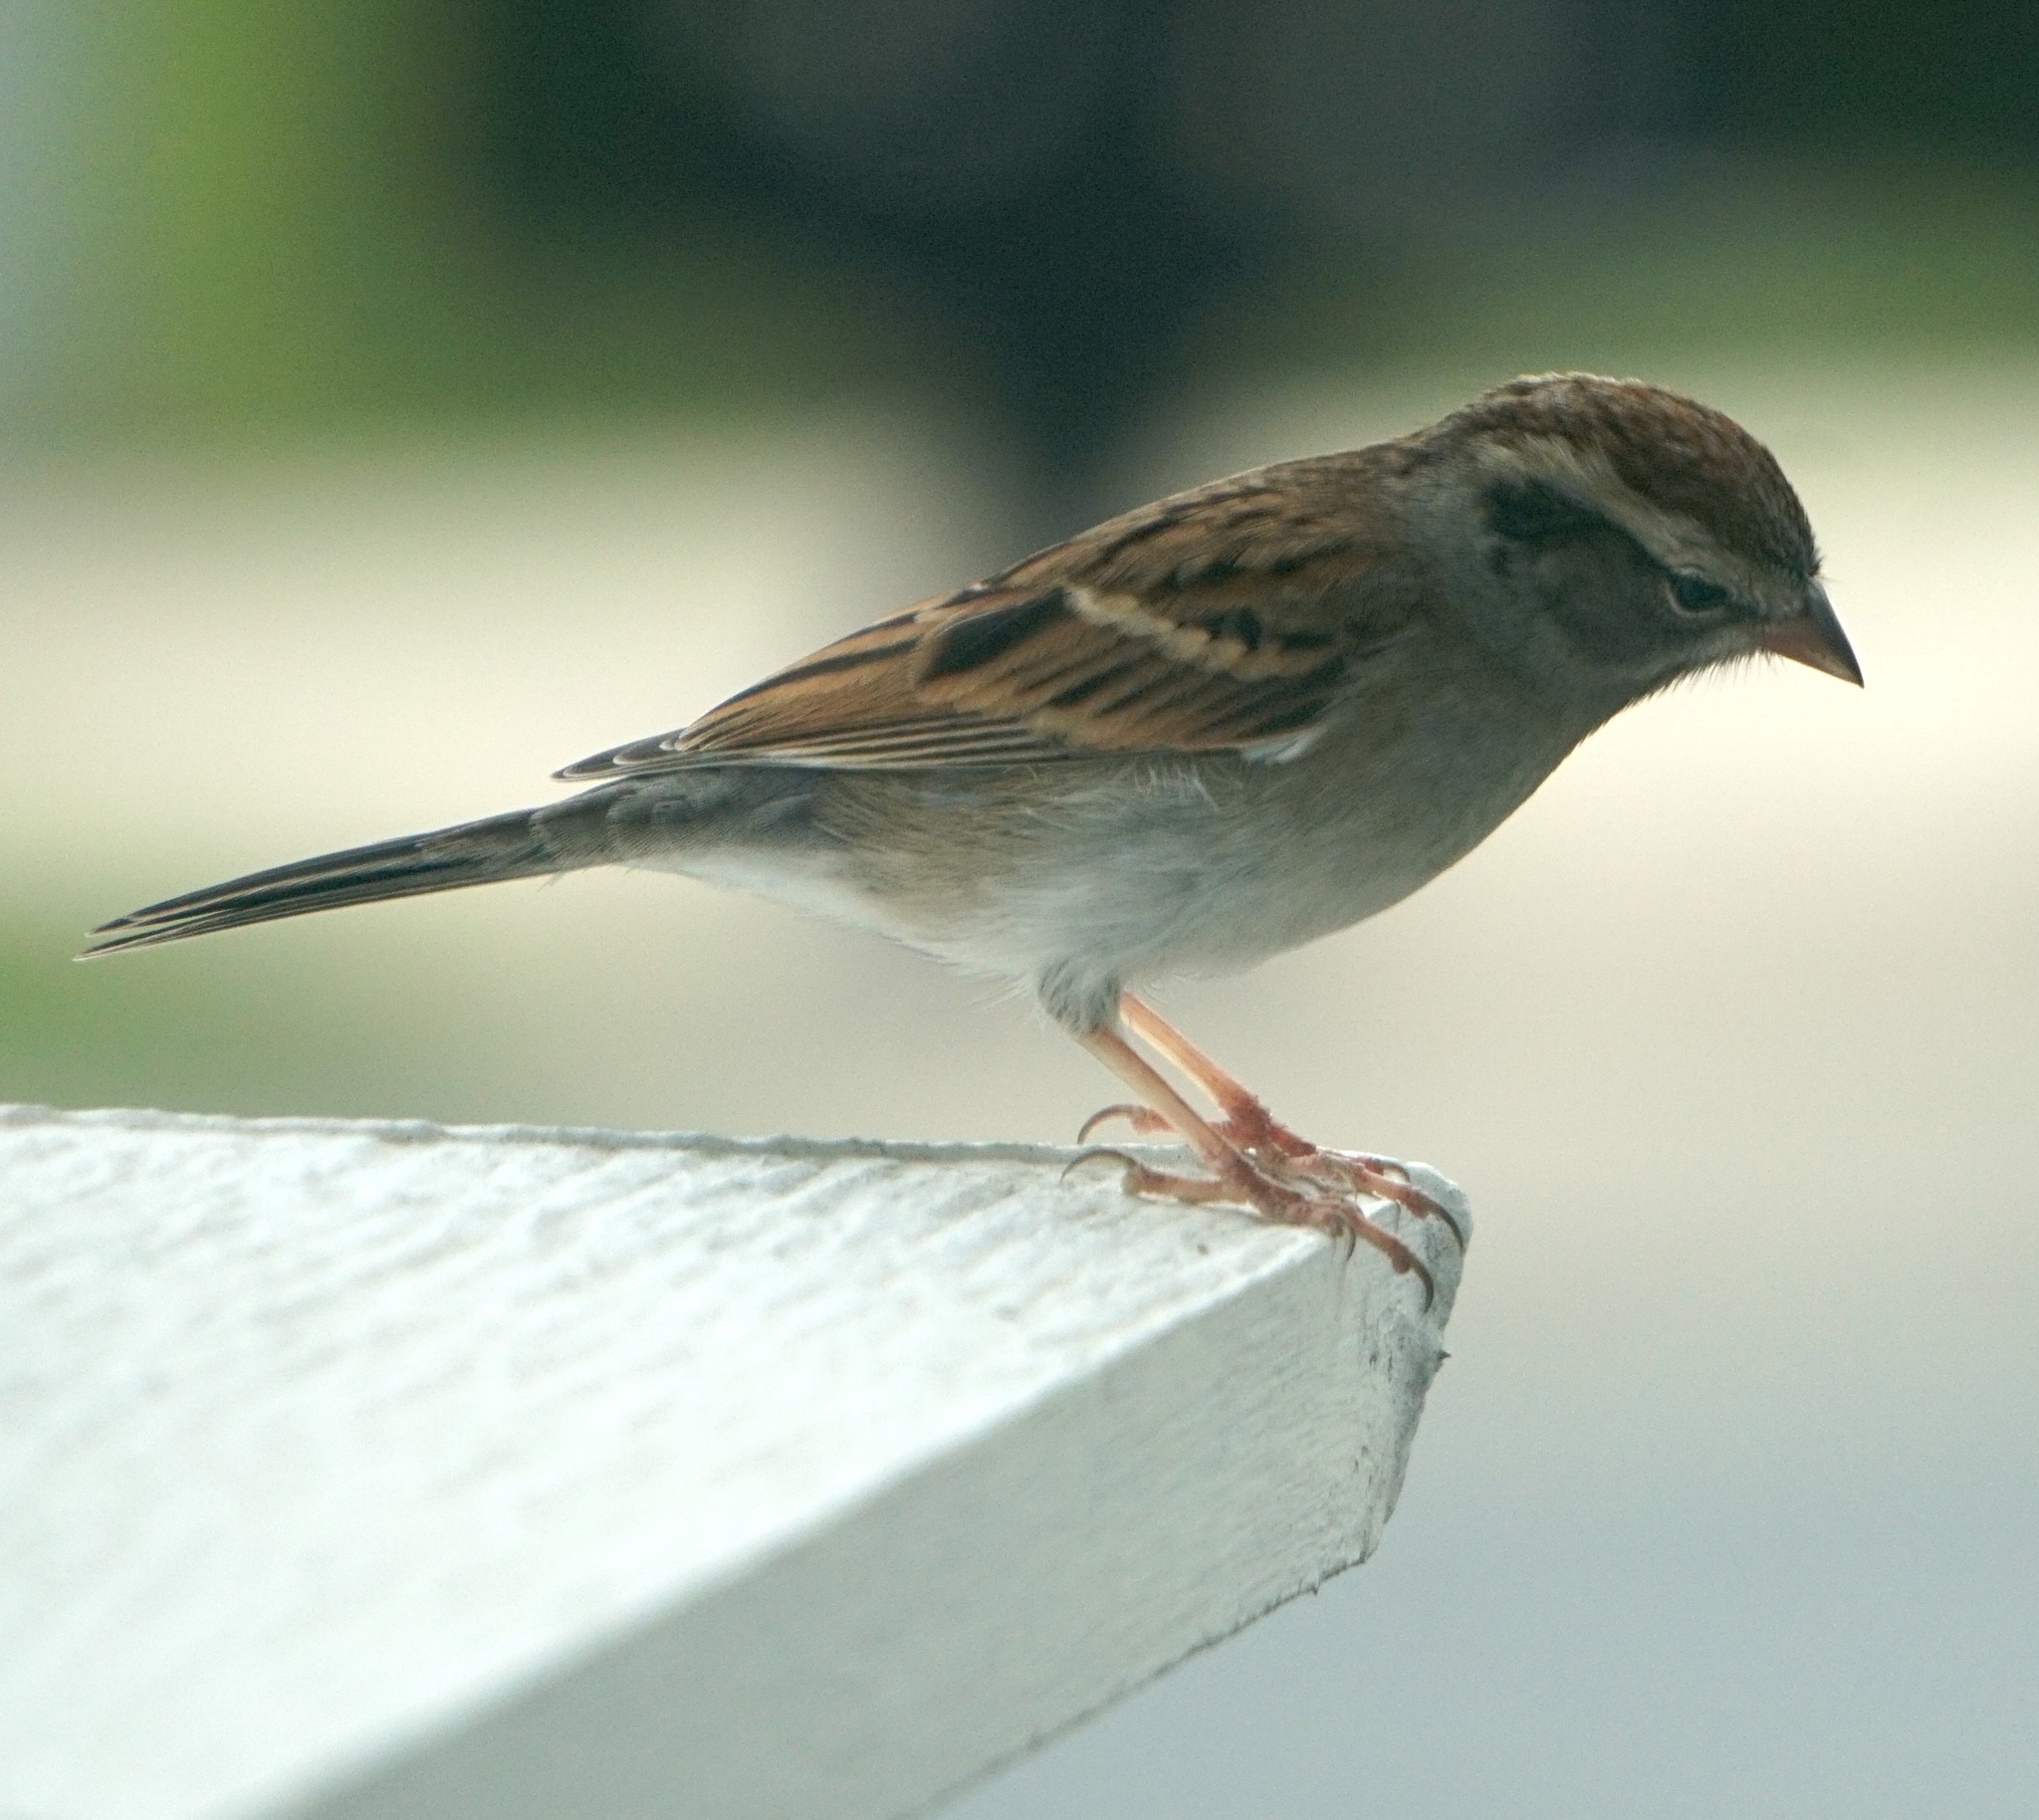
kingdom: Animalia
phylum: Chordata
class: Aves
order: Passeriformes
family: Passerellidae
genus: Spizella
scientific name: Spizella passerina
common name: Chipping sparrow
